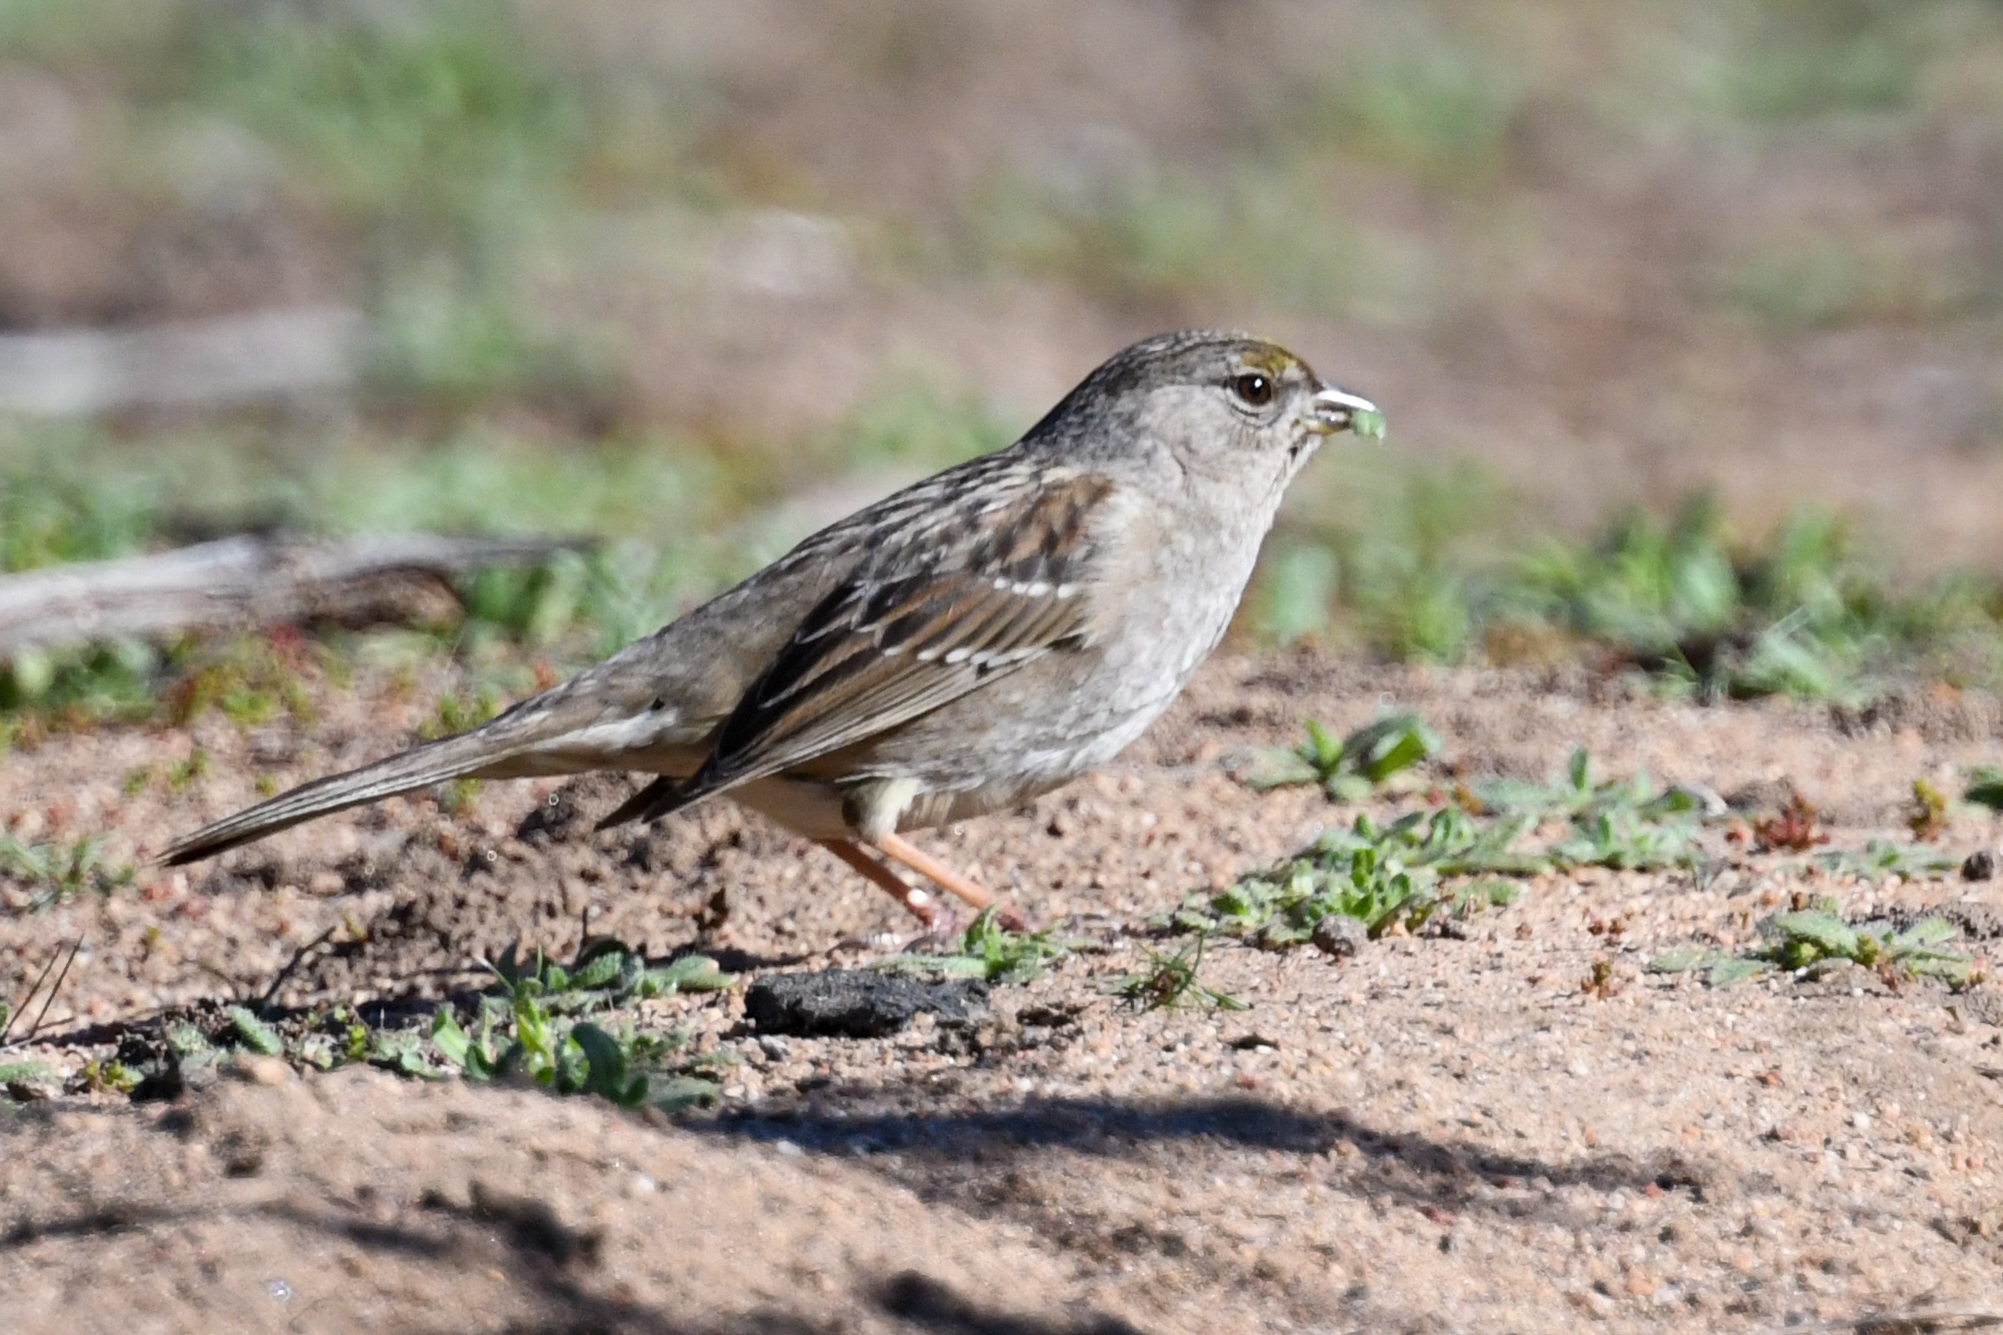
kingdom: Animalia
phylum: Chordata
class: Aves
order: Passeriformes
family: Passerellidae
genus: Zonotrichia
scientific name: Zonotrichia atricapilla
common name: Golden-crowned sparrow
